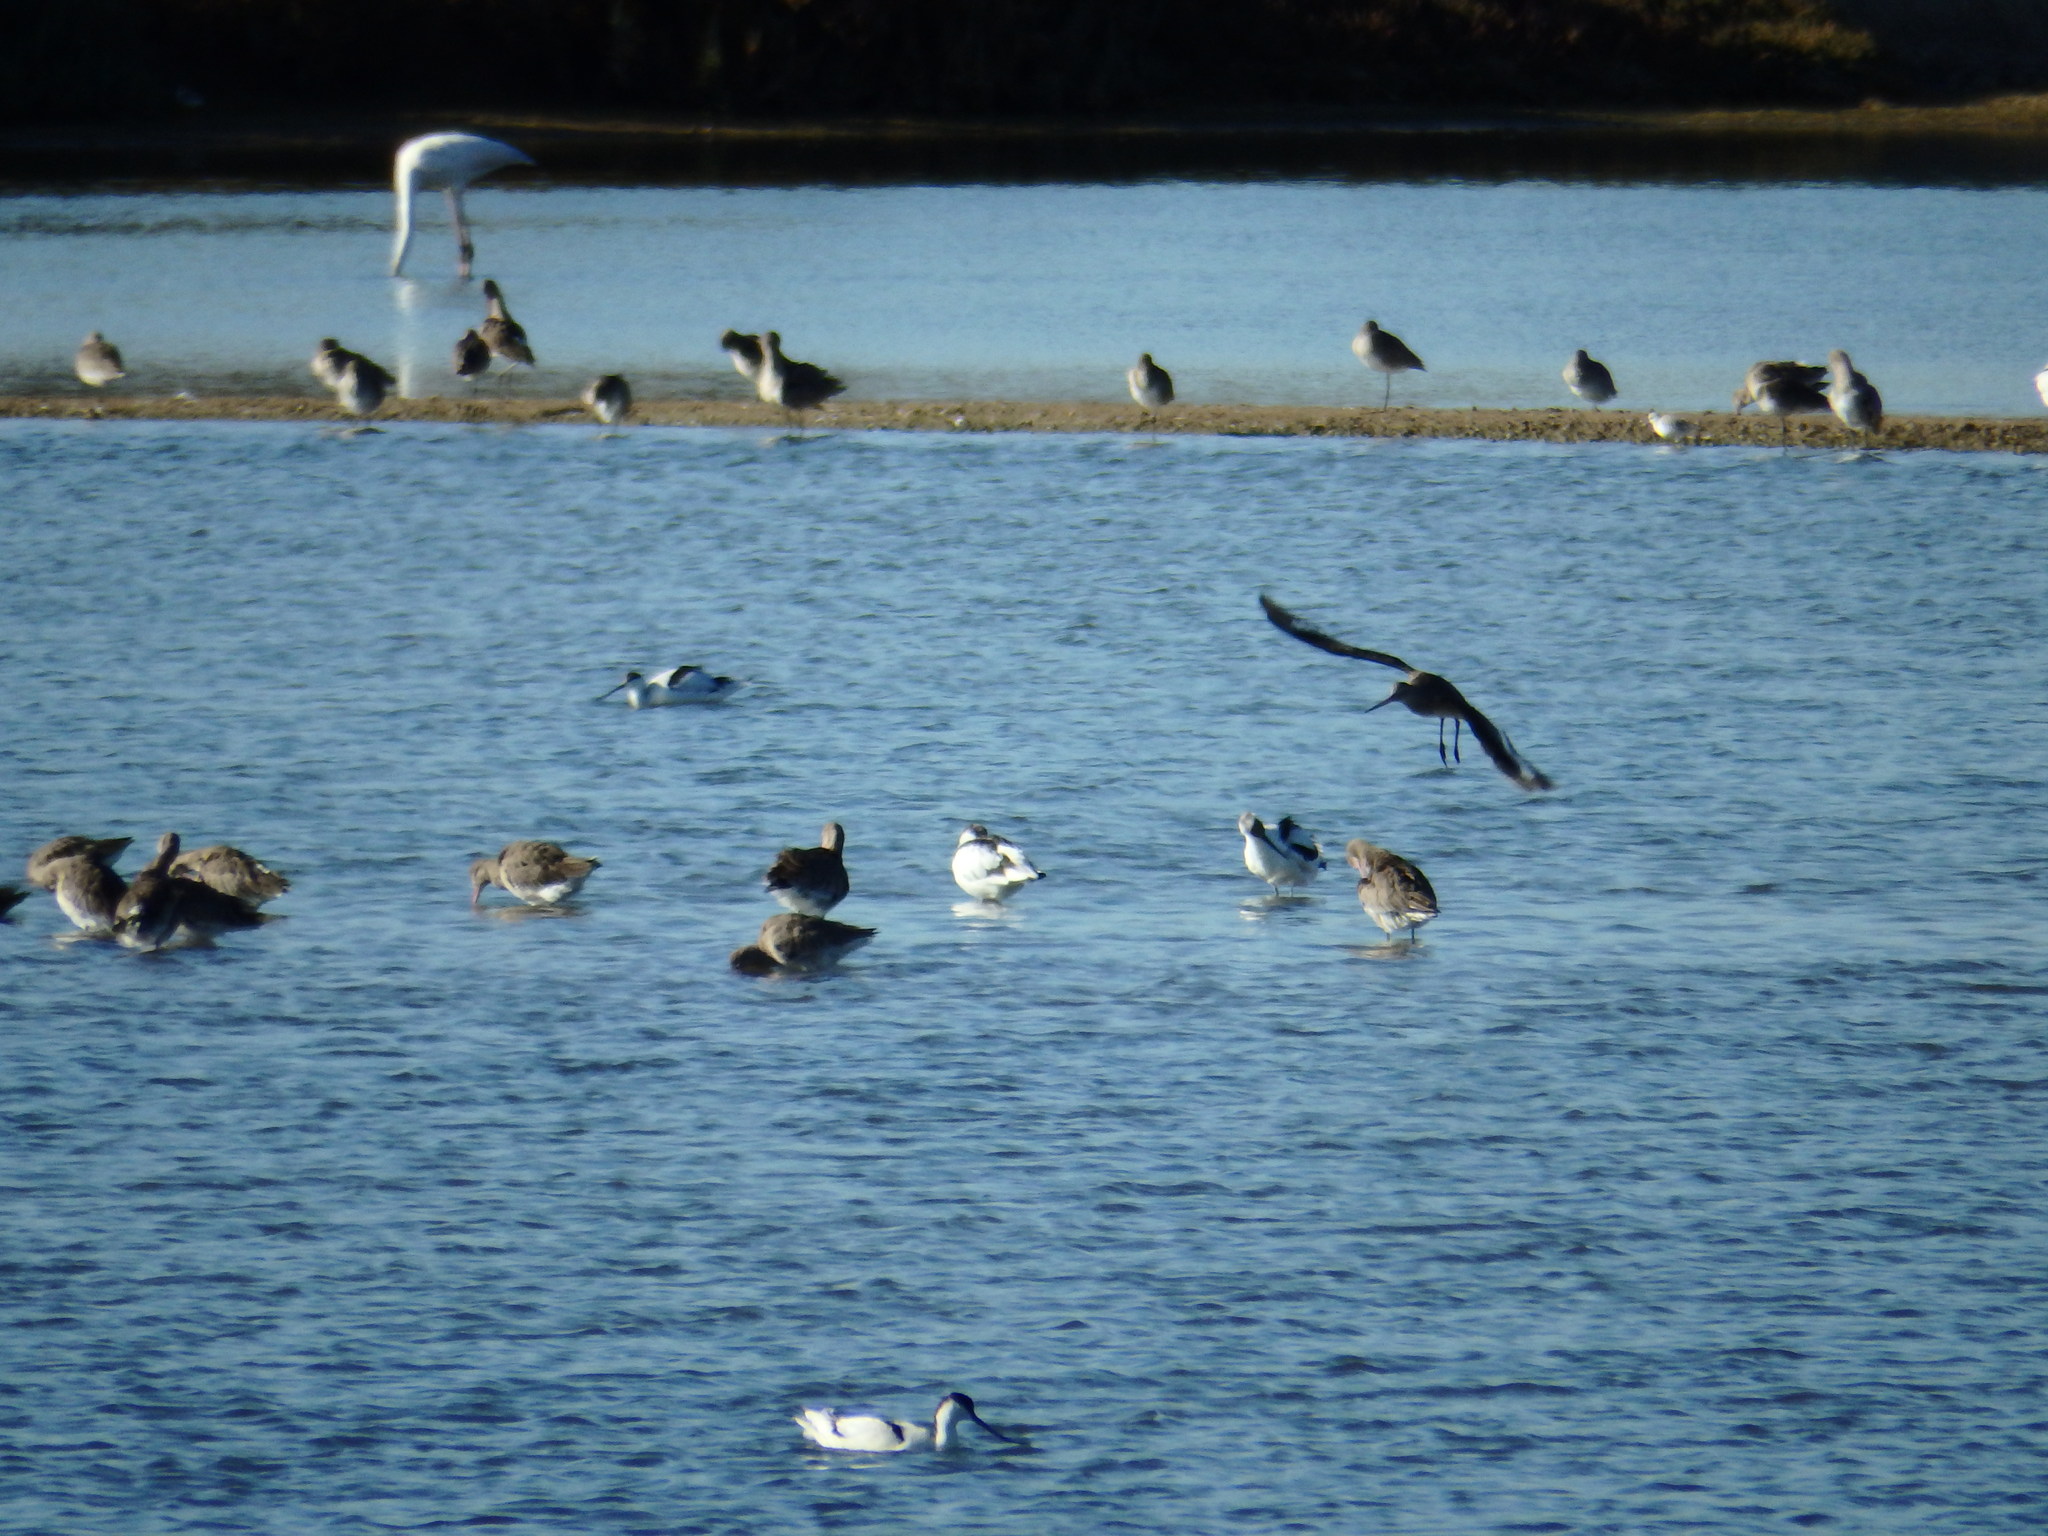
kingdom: Animalia
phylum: Chordata
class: Aves
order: Charadriiformes
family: Recurvirostridae
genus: Recurvirostra
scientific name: Recurvirostra avosetta
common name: Pied avocet
